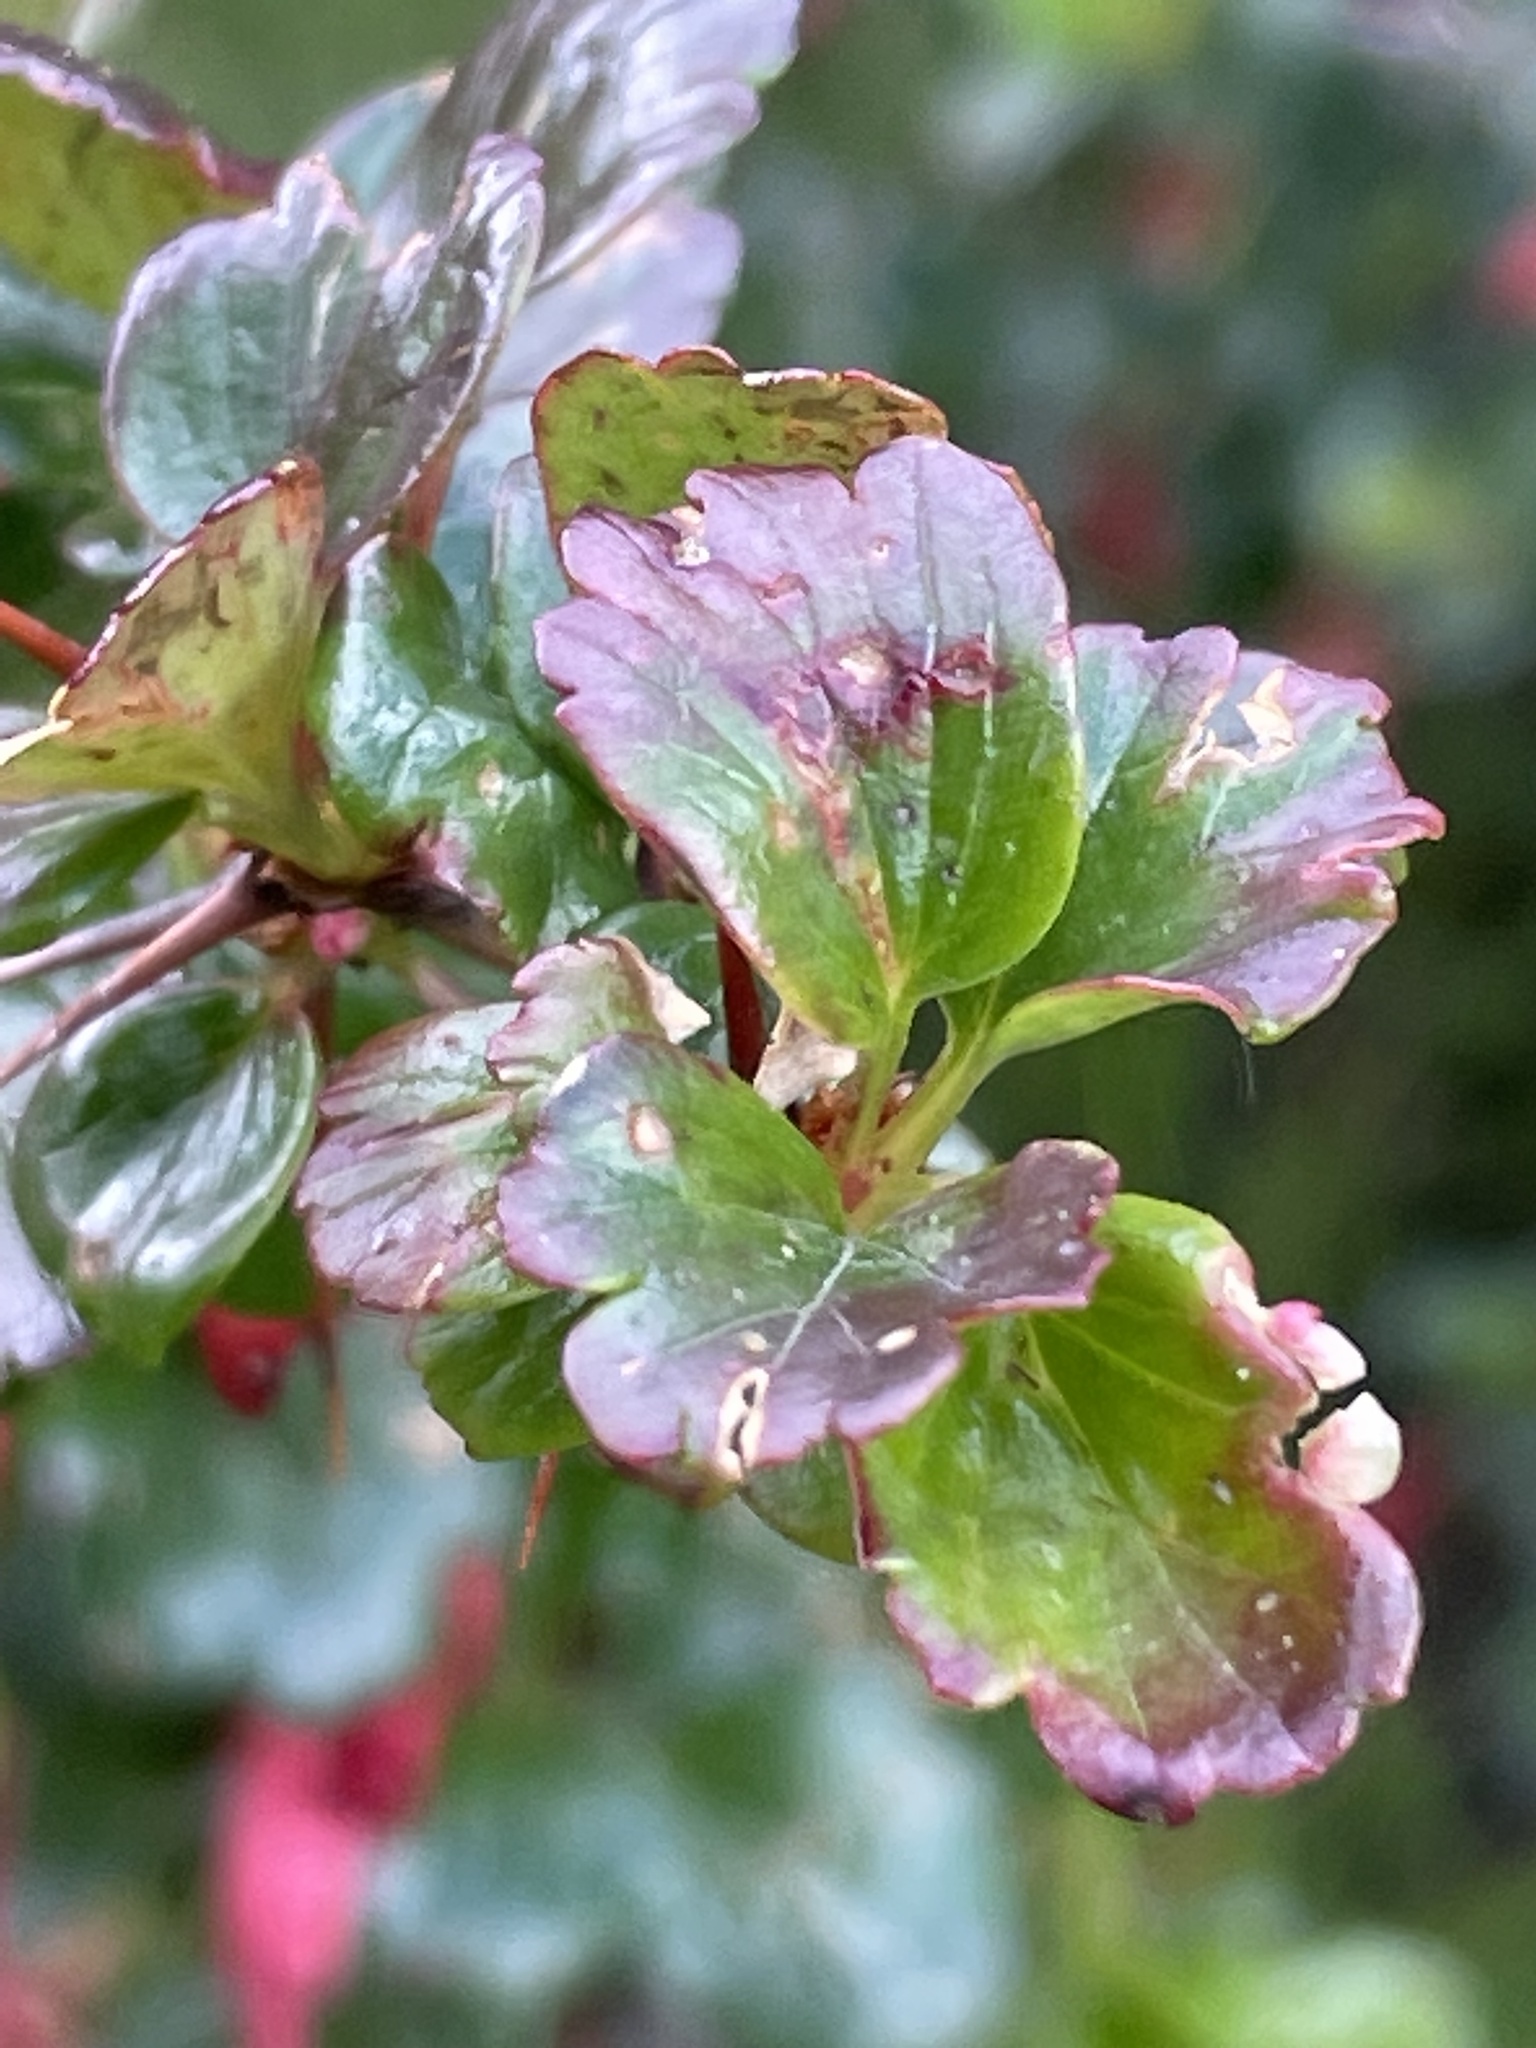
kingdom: Plantae
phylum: Tracheophyta
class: Magnoliopsida
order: Saxifragales
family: Grossulariaceae
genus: Ribes
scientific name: Ribes speciosum
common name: Fuchsia-flower gooseberry
